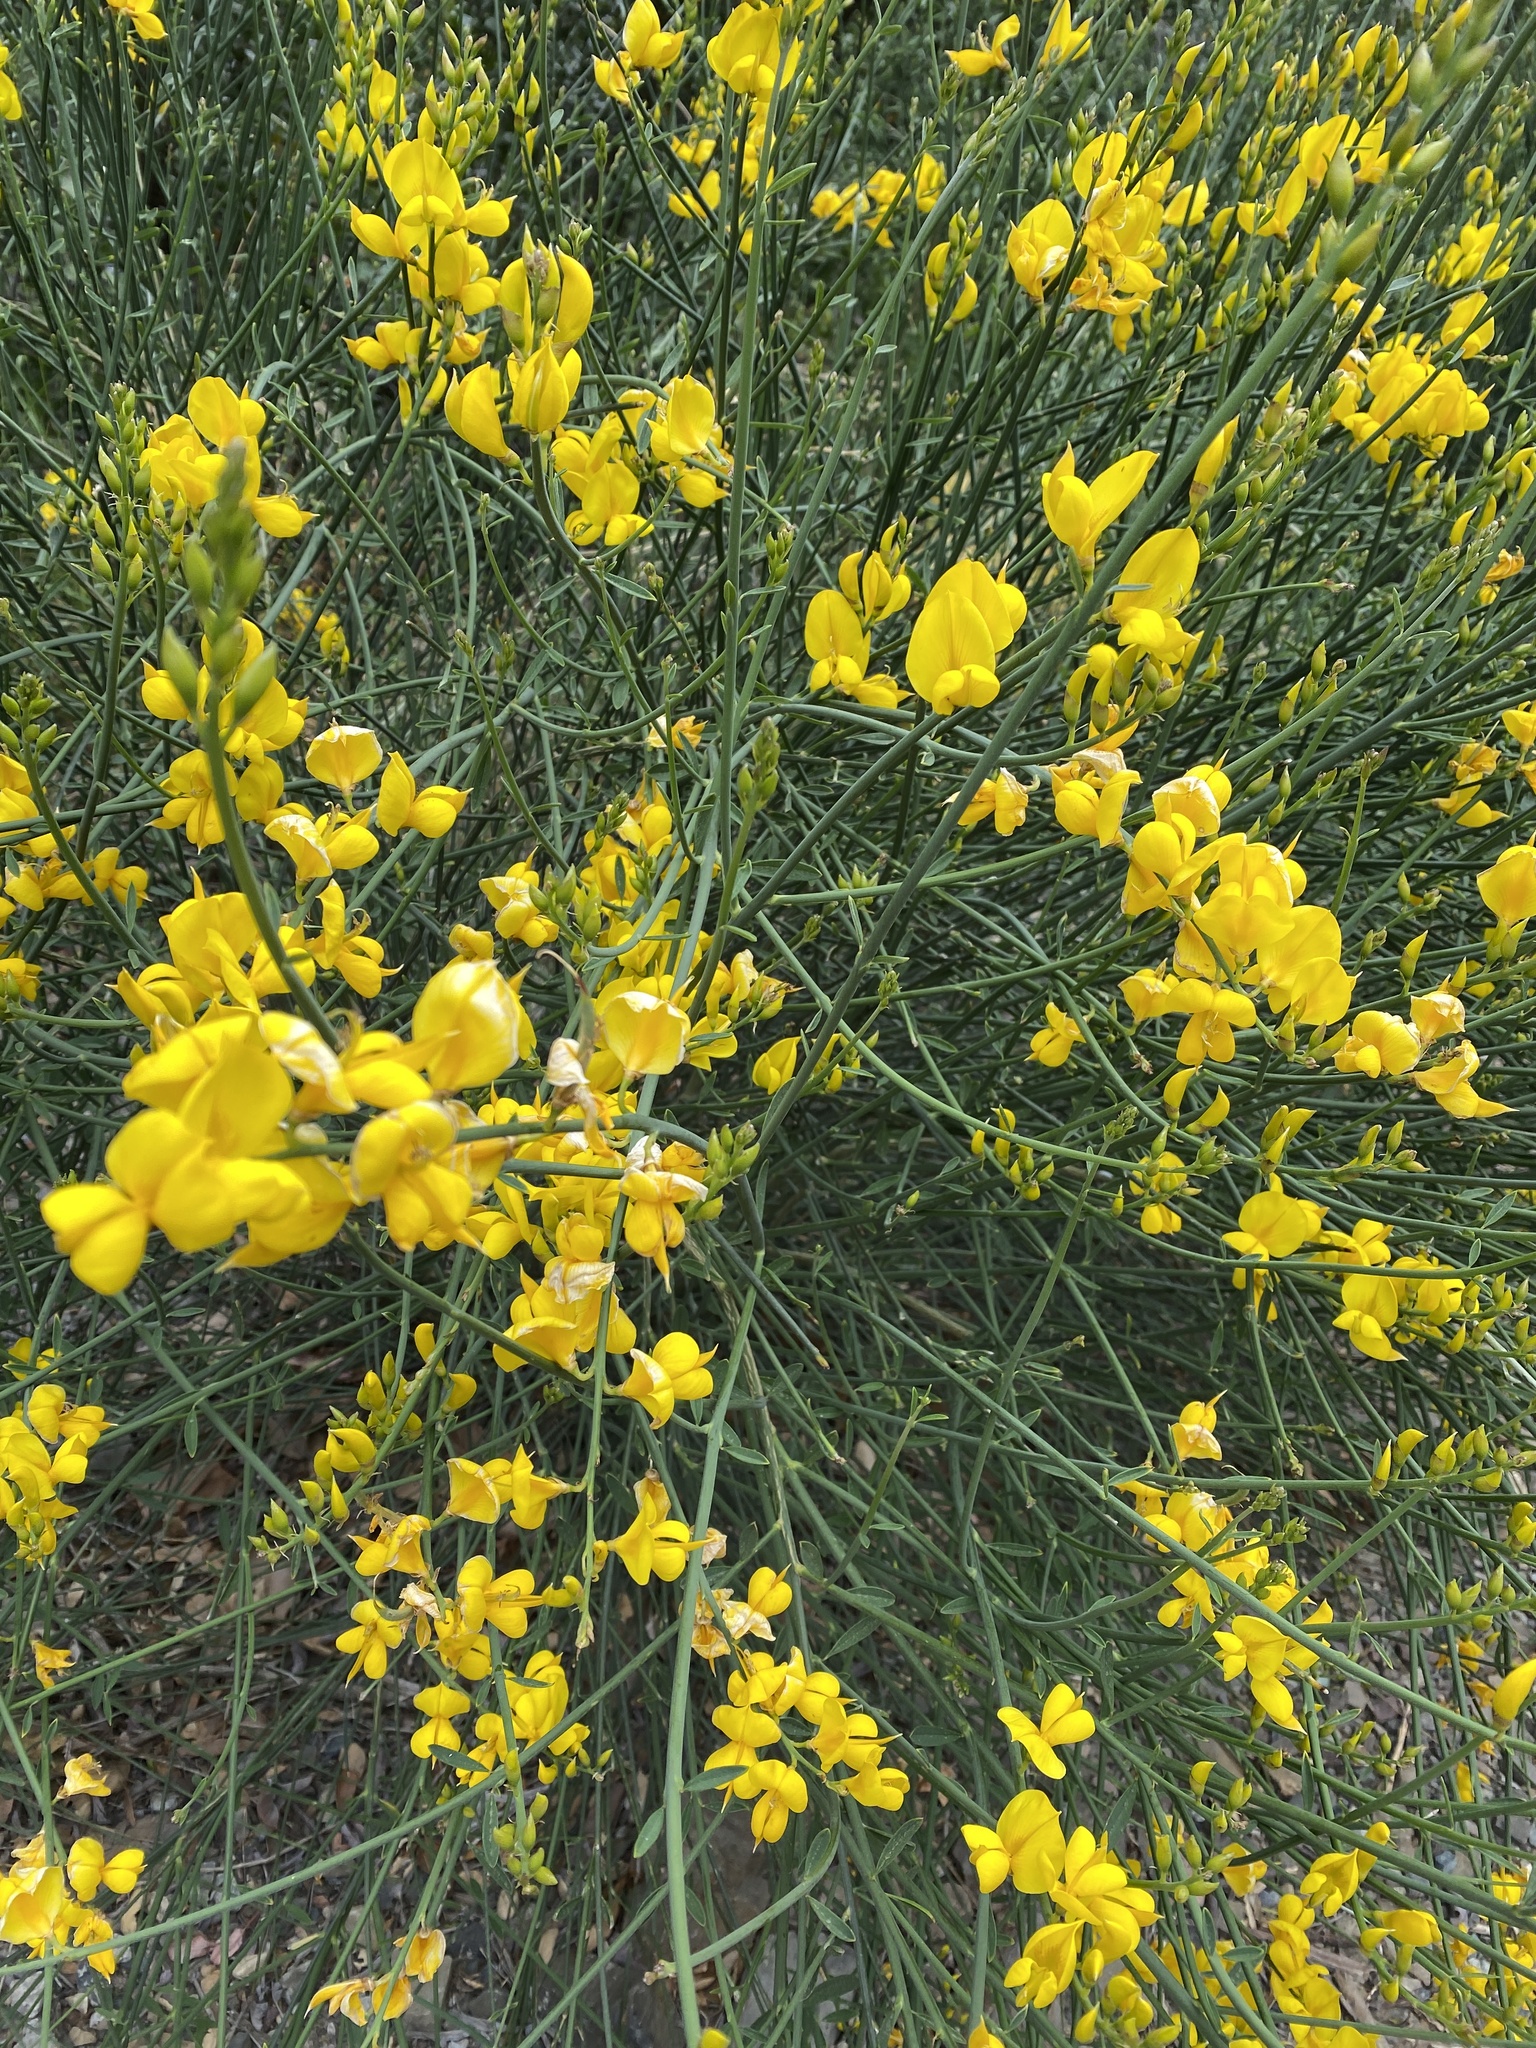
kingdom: Plantae
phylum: Tracheophyta
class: Magnoliopsida
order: Fabales
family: Fabaceae
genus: Spartium
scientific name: Spartium junceum
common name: Spanish broom
